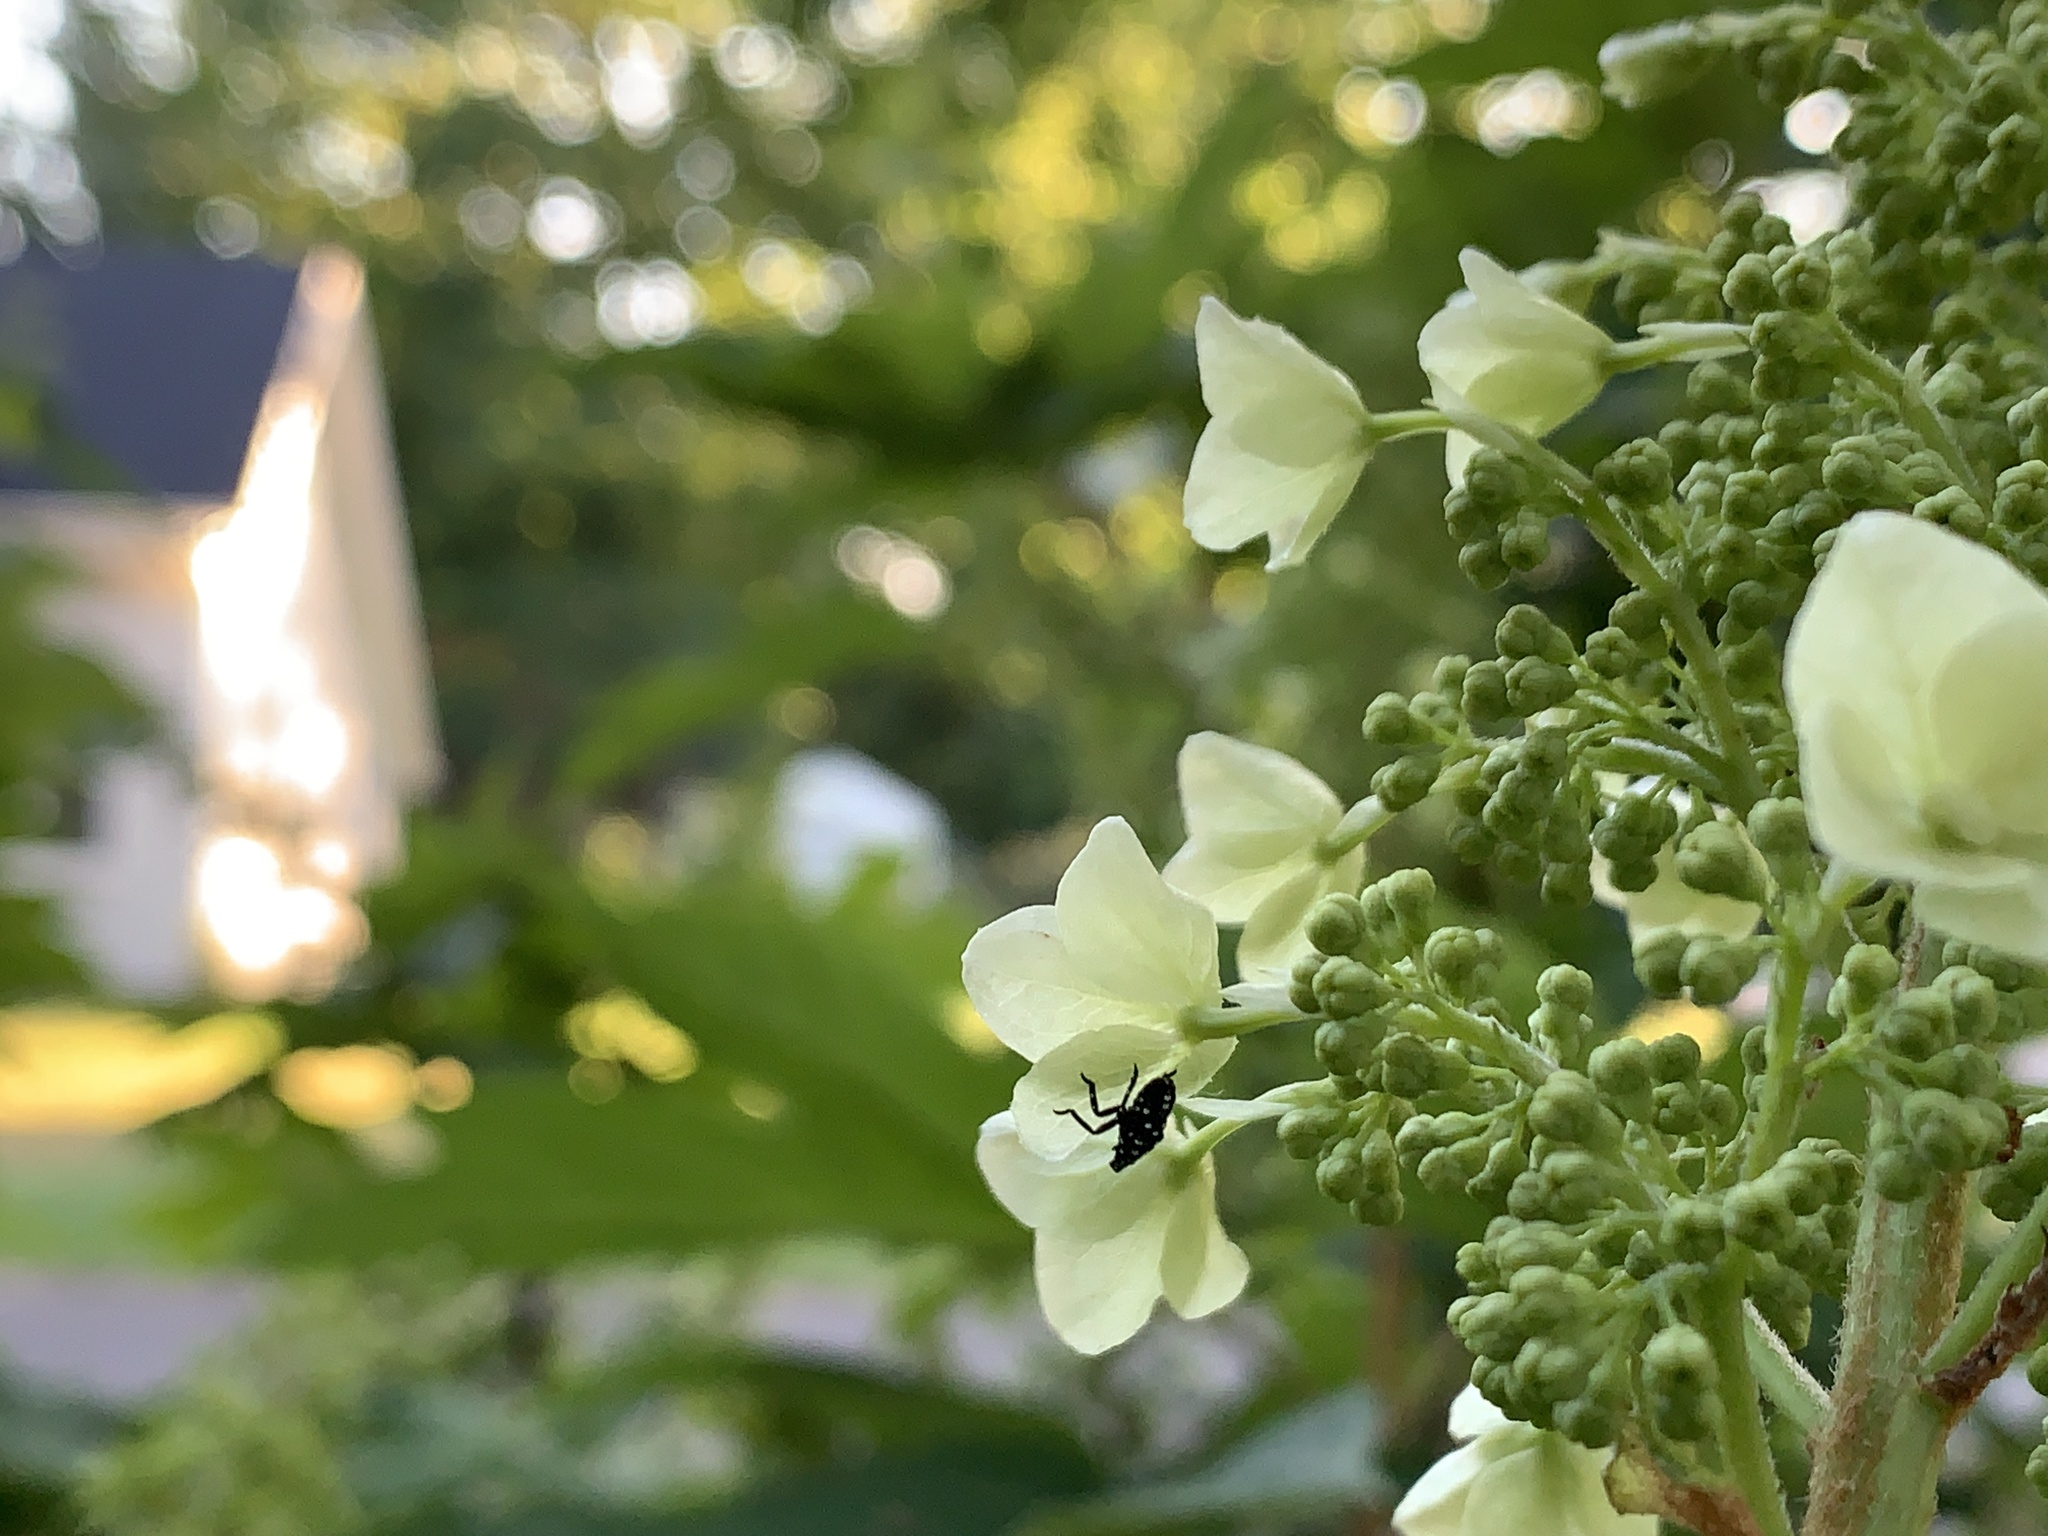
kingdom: Animalia
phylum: Arthropoda
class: Insecta
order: Hemiptera
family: Fulgoridae
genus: Lycorma
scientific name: Lycorma delicatula
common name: Spotted lanternfly
